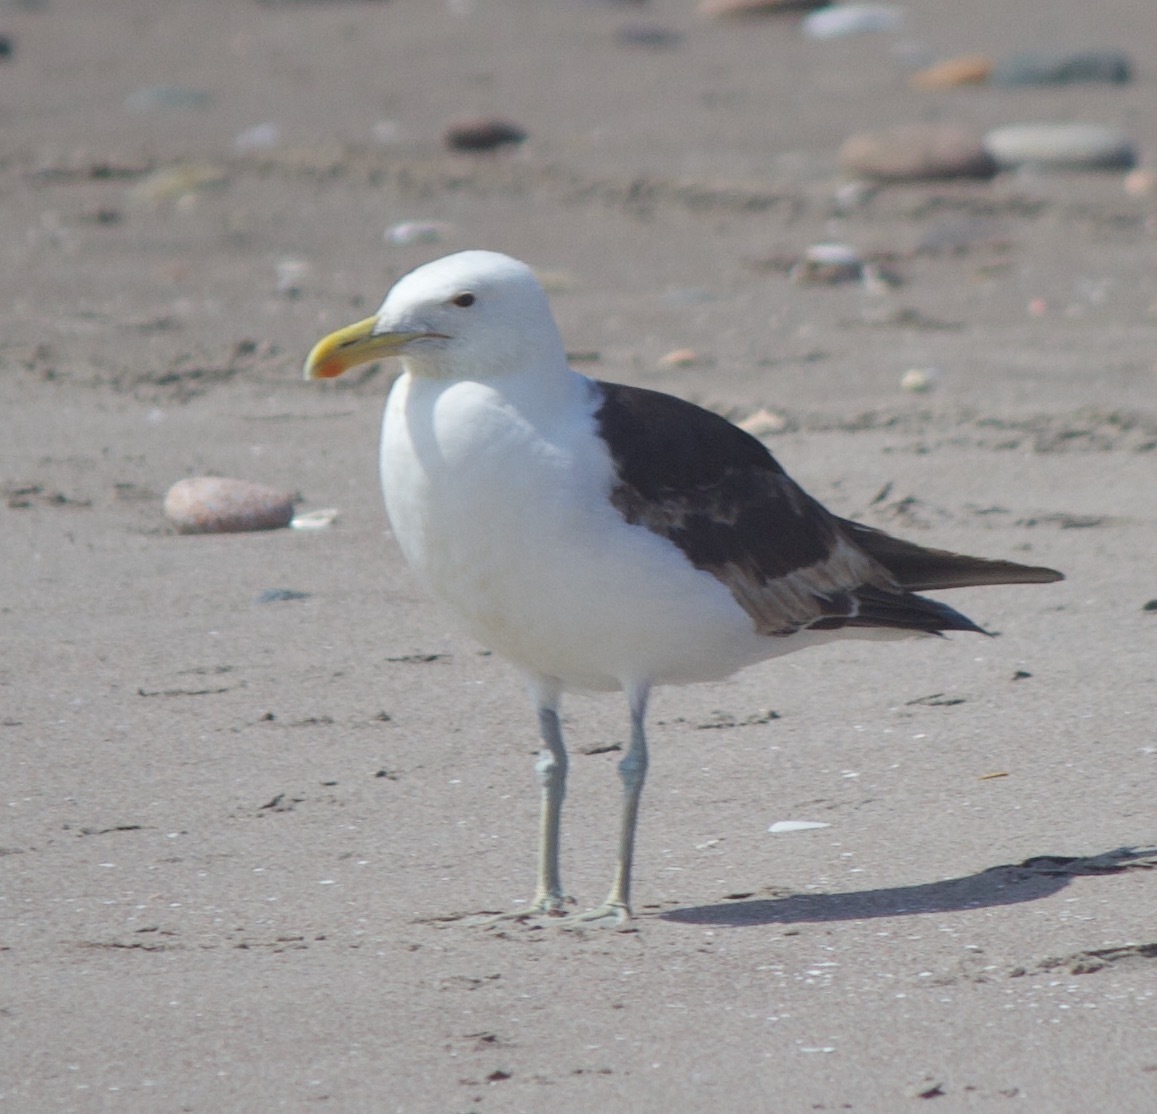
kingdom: Animalia
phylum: Chordata
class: Aves
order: Charadriiformes
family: Laridae
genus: Larus
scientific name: Larus dominicanus
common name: Kelp gull
